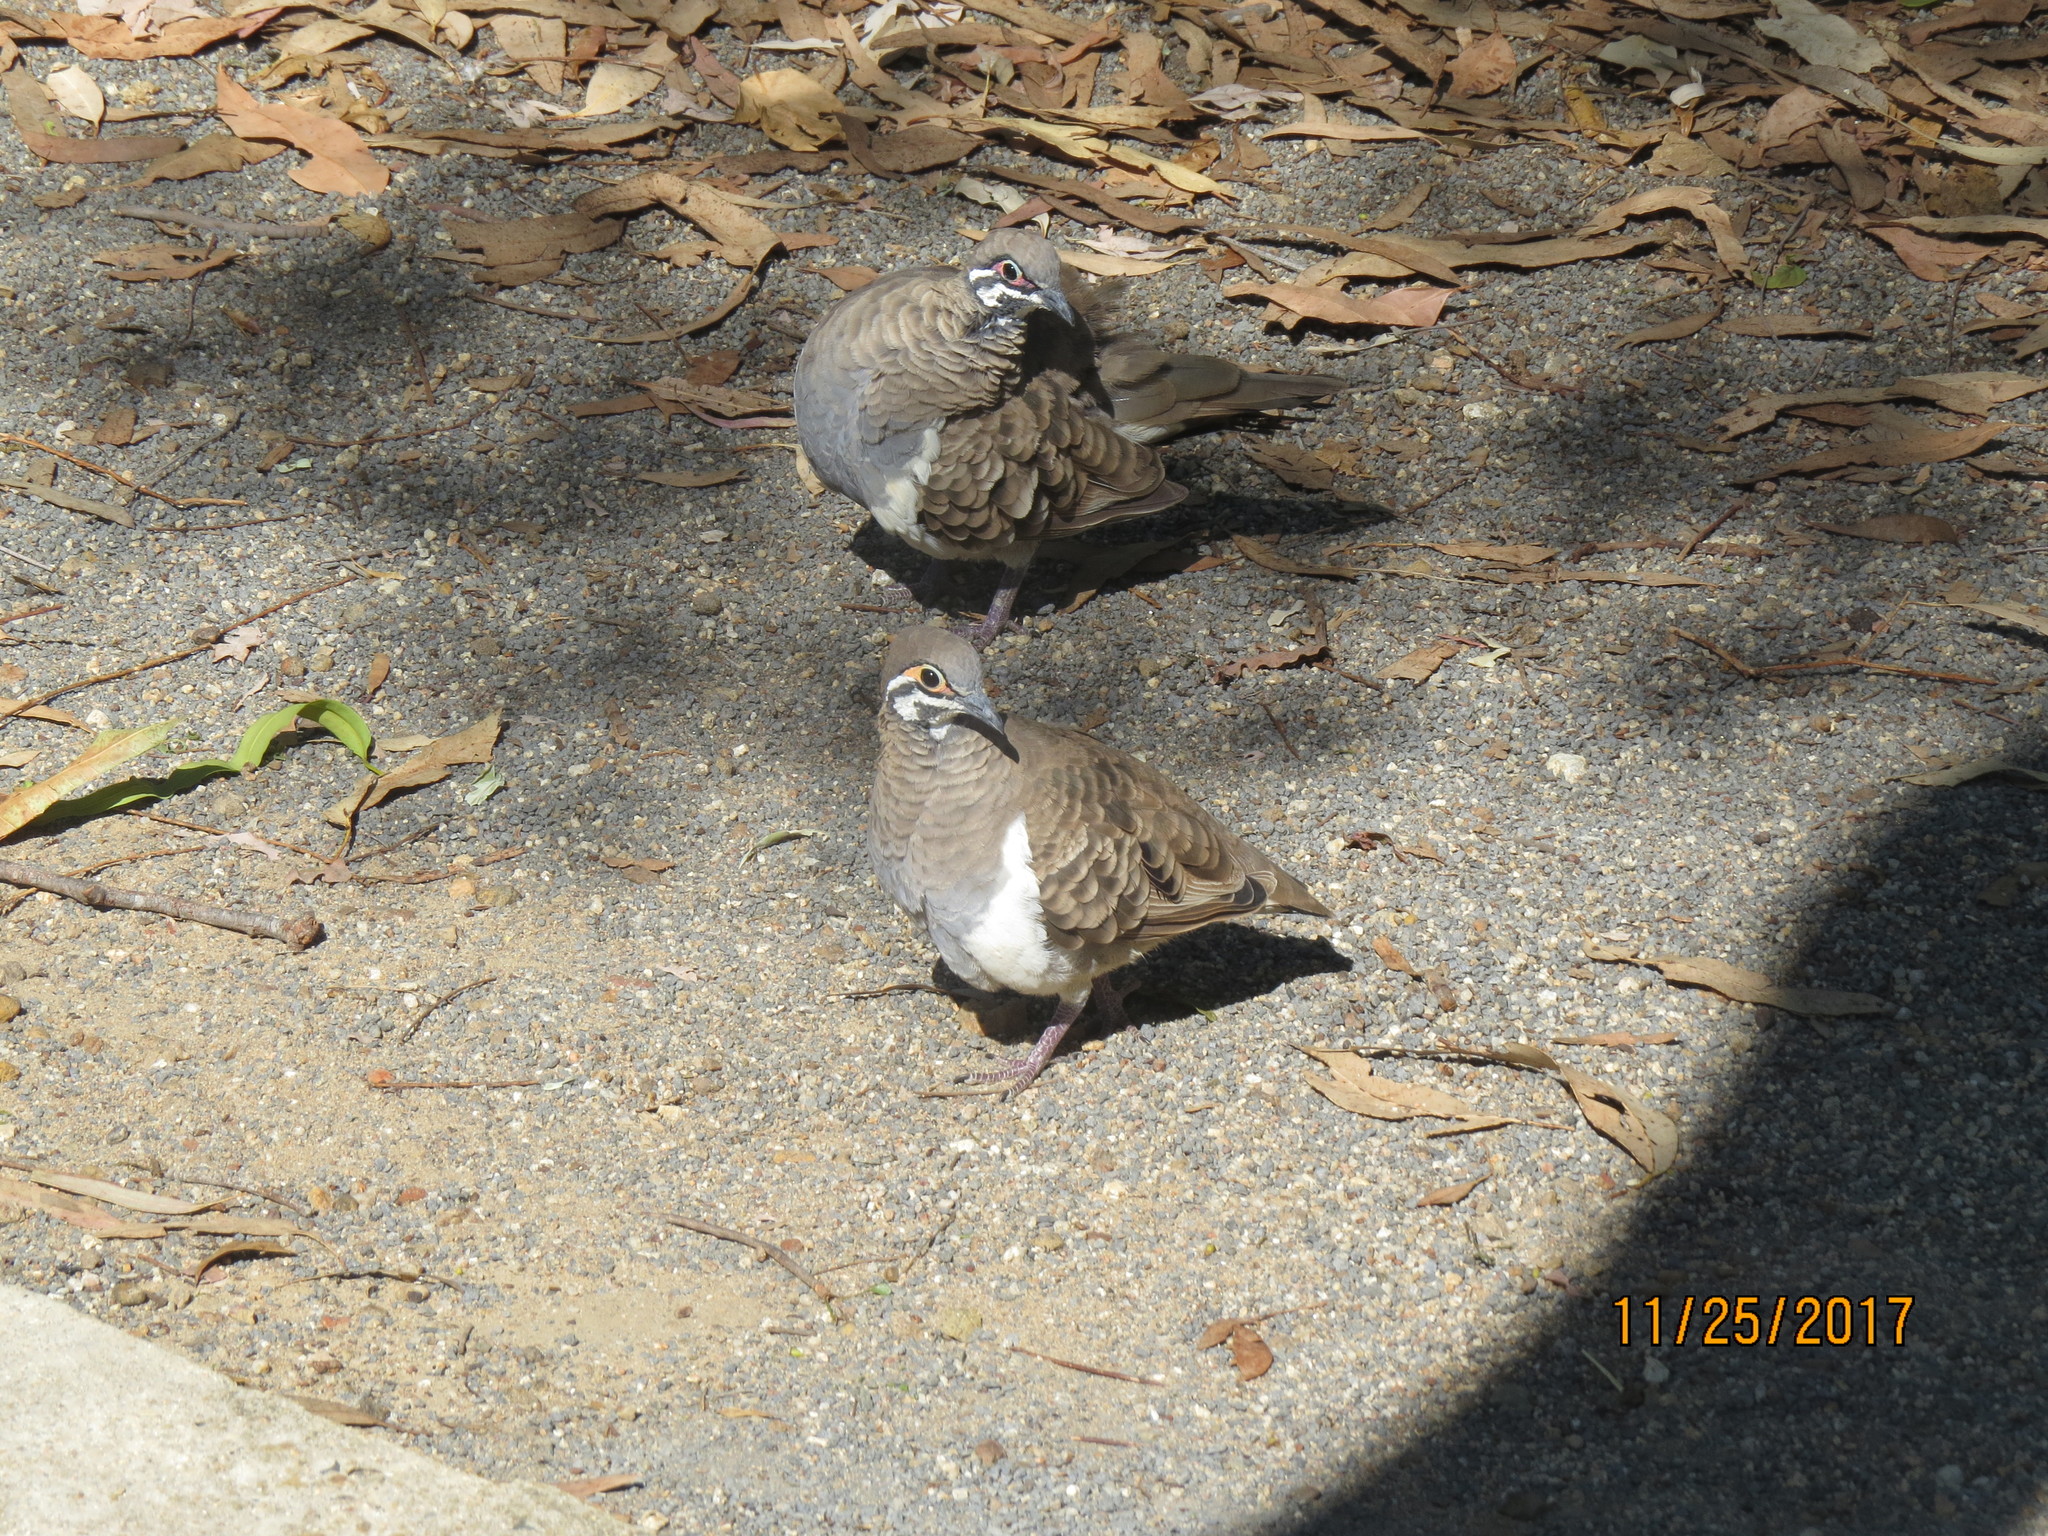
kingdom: Animalia
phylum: Chordata
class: Aves
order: Columbiformes
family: Columbidae
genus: Geophaps
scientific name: Geophaps scripta
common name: Squatter pigeon
